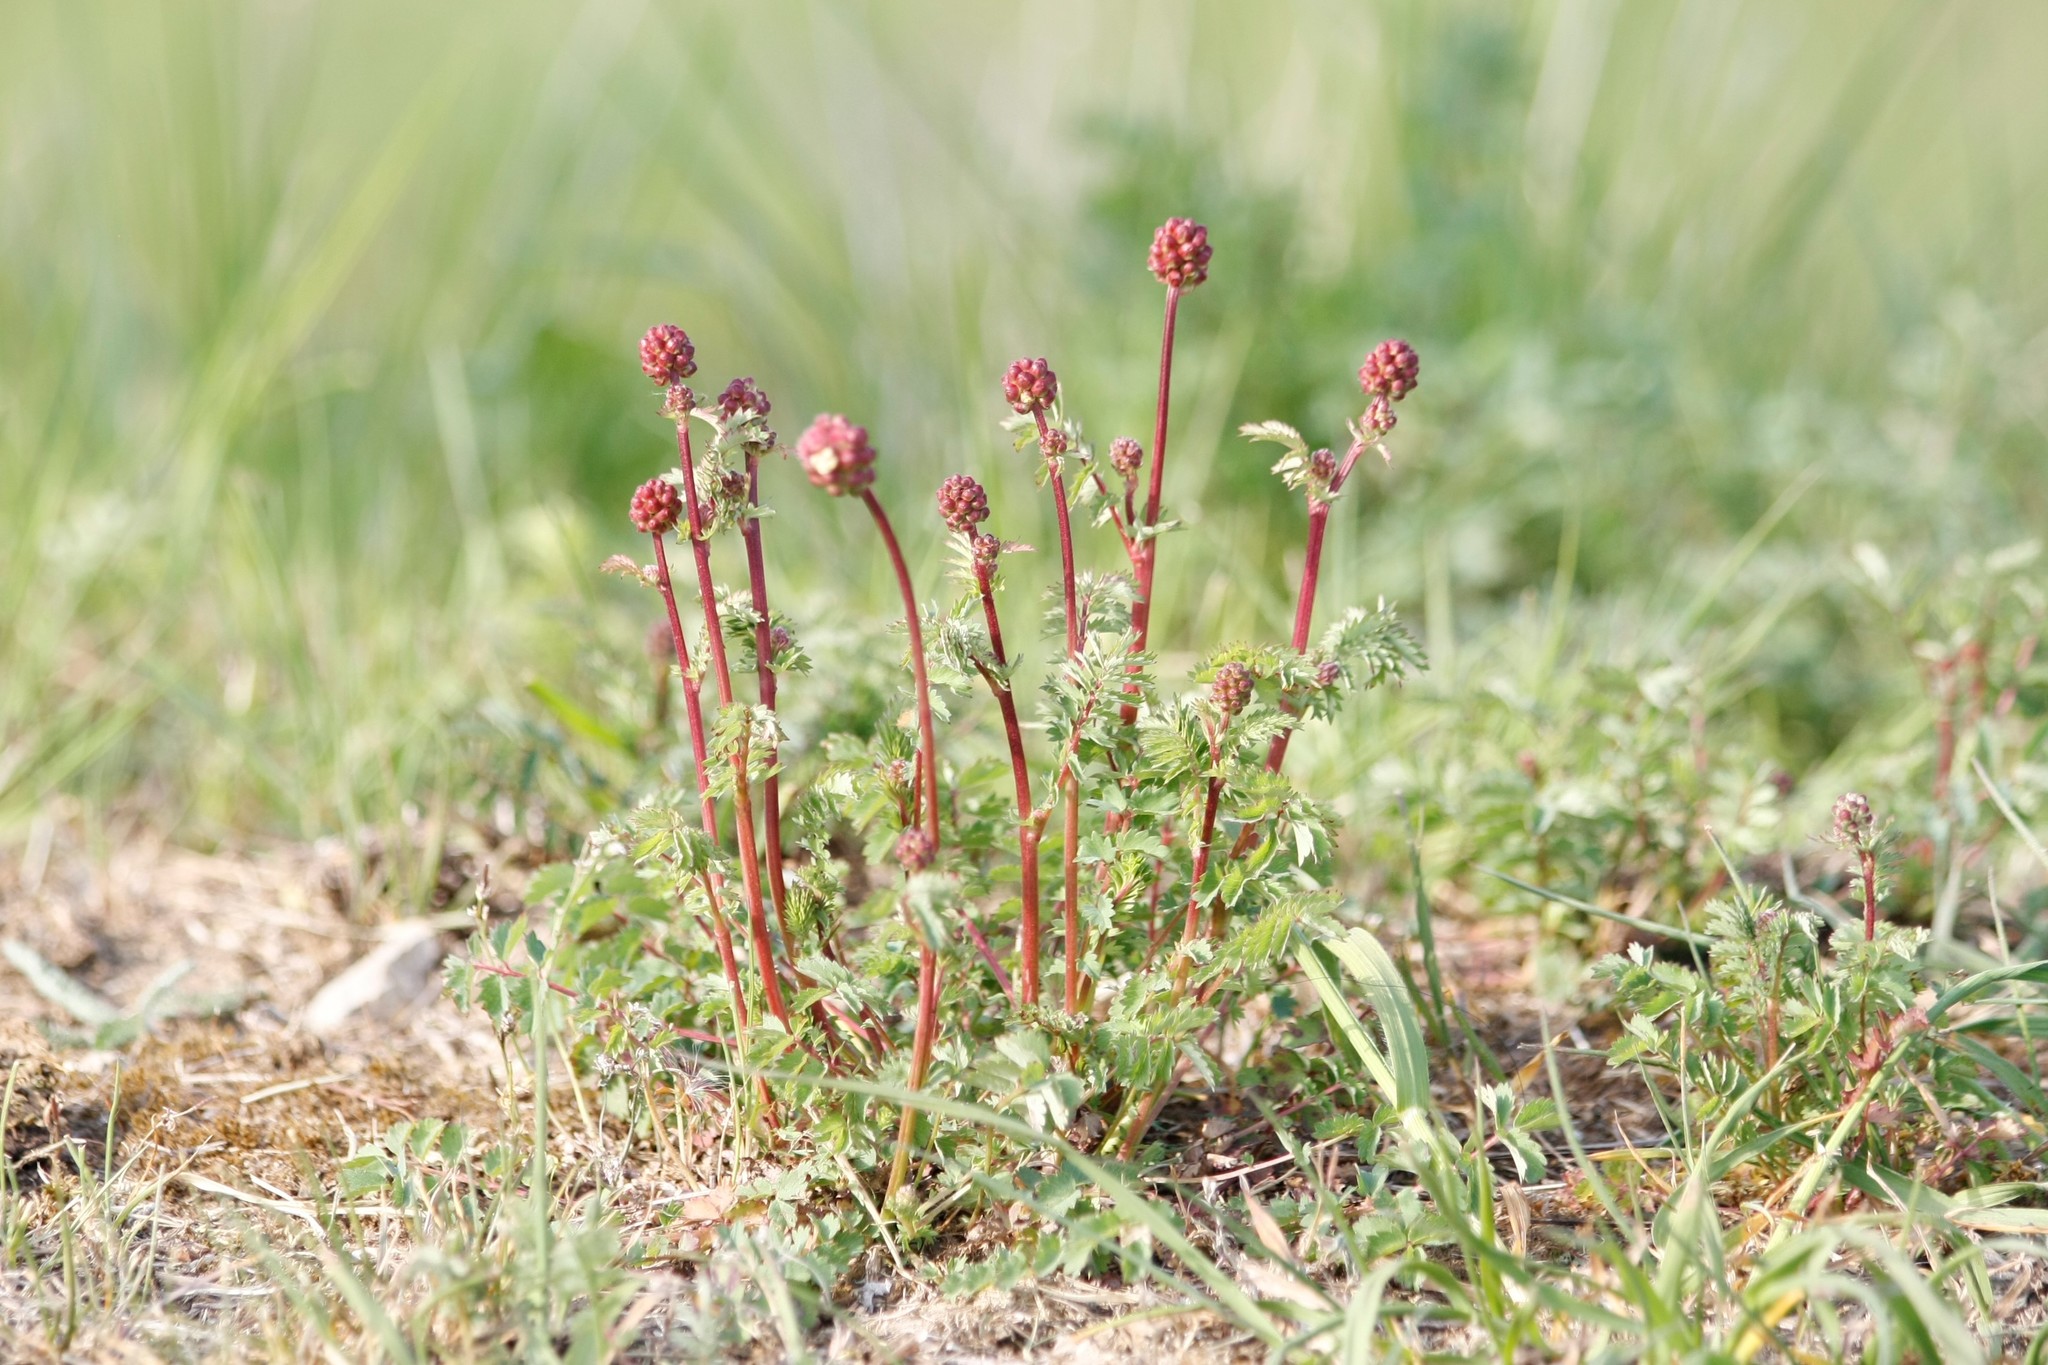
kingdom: Plantae
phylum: Tracheophyta
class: Magnoliopsida
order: Rosales
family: Rosaceae
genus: Poterium
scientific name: Poterium sanguisorba
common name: Salad burnet
